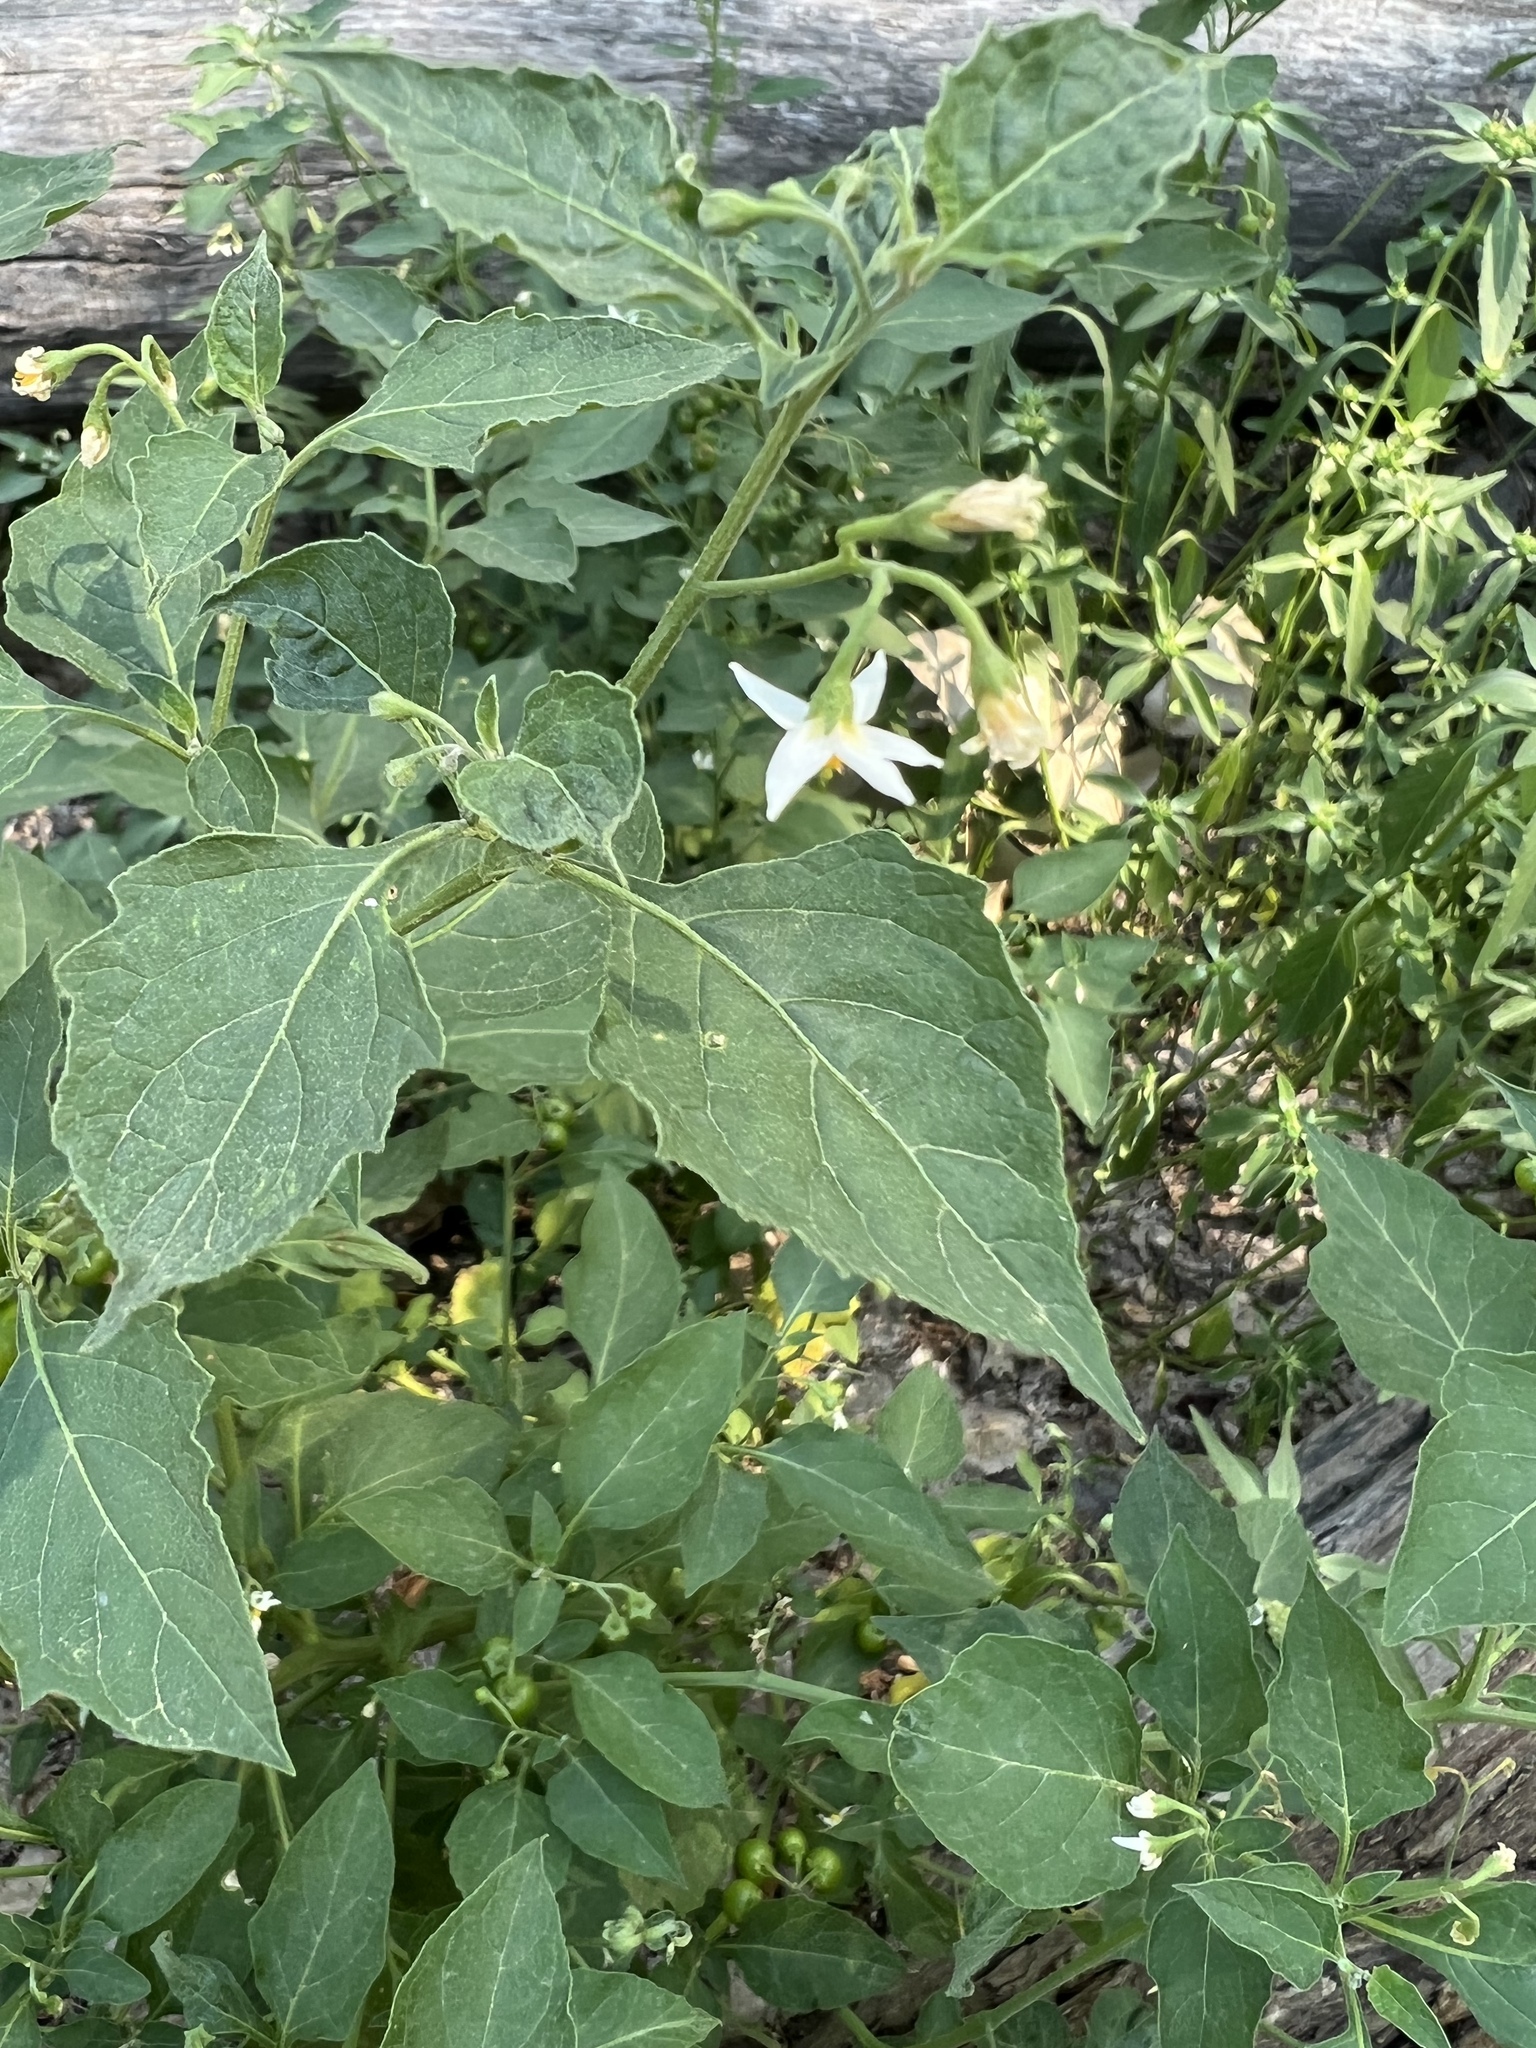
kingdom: Plantae
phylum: Tracheophyta
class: Magnoliopsida
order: Solanales
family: Solanaceae
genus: Solanum
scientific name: Solanum interius
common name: Plains black nightshade
